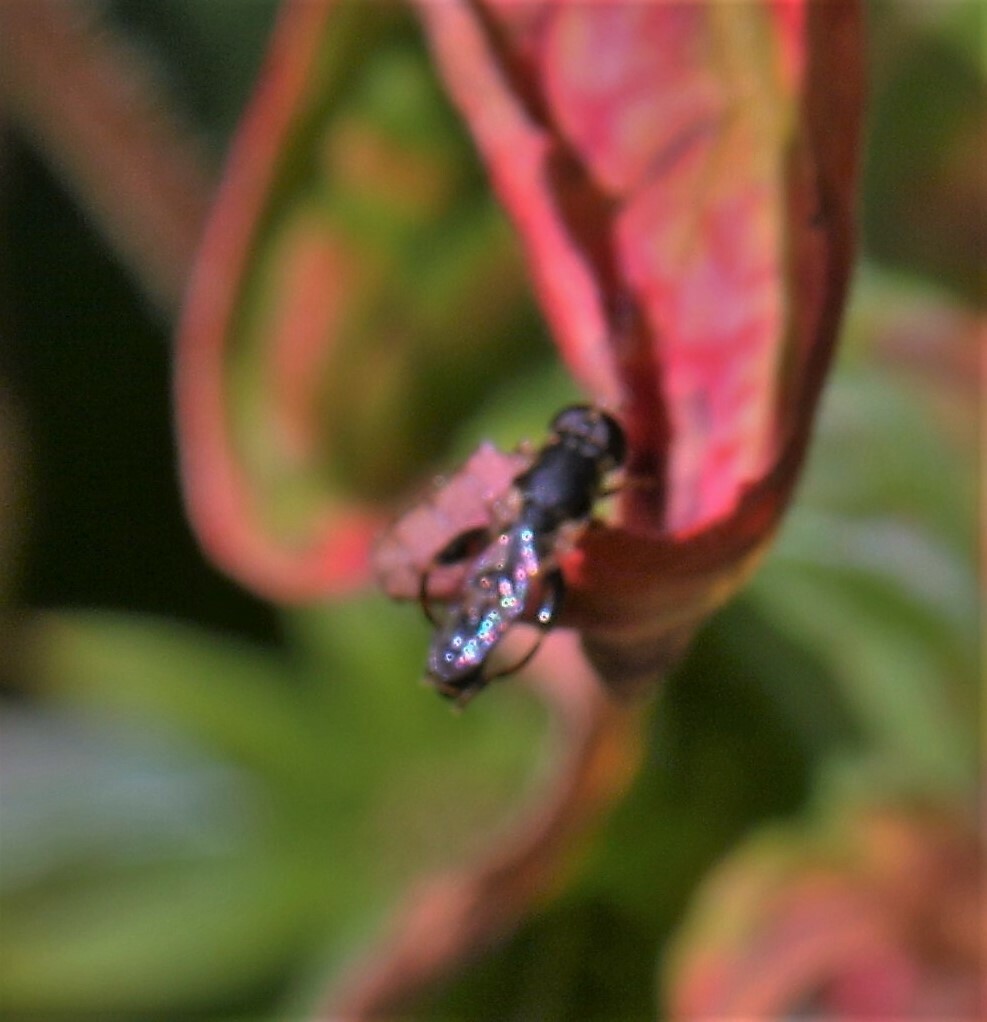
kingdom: Animalia
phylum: Arthropoda
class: Insecta
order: Diptera
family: Syrphidae
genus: Syritta
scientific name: Syritta pipiens
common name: Hover fly
